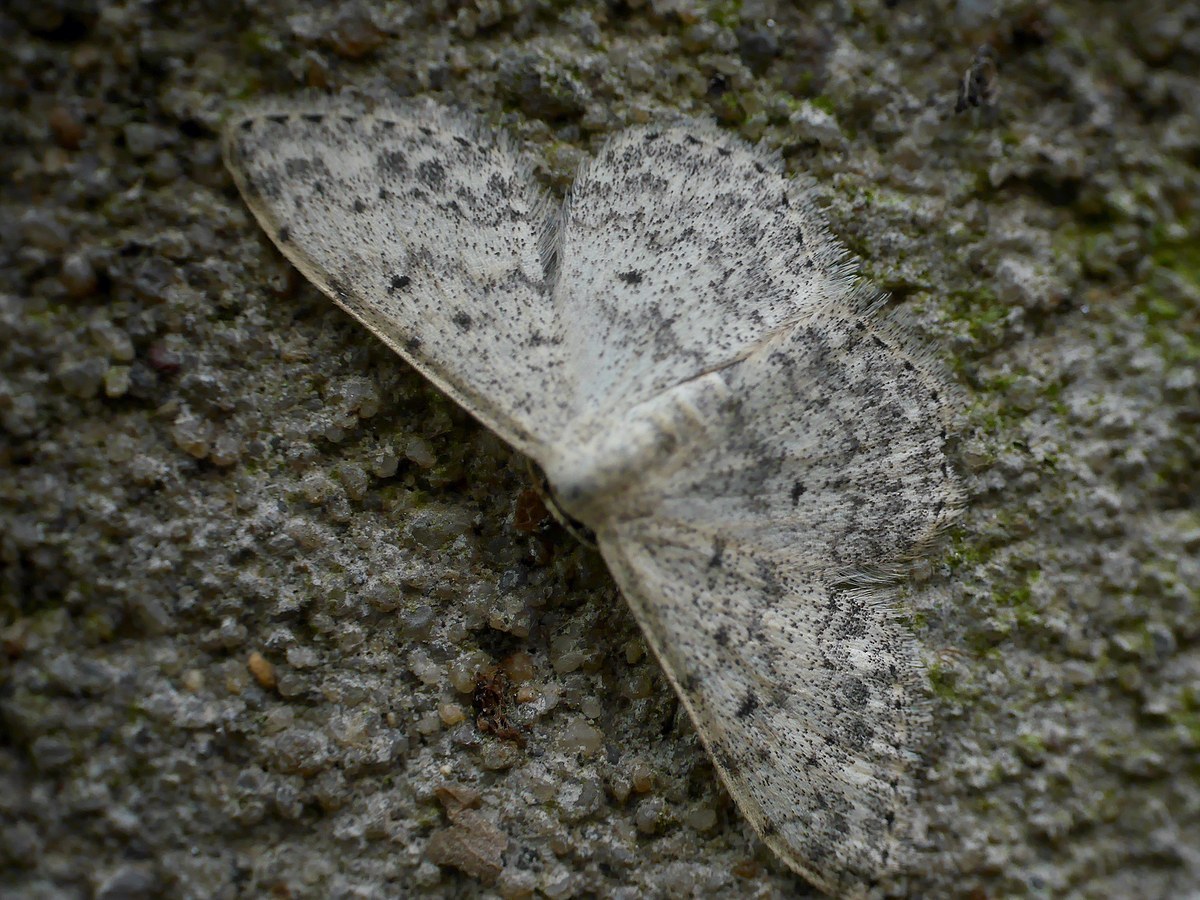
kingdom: Animalia
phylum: Arthropoda
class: Insecta
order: Lepidoptera
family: Geometridae
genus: Scopula
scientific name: Scopula marginepunctata
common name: Mullein wave
